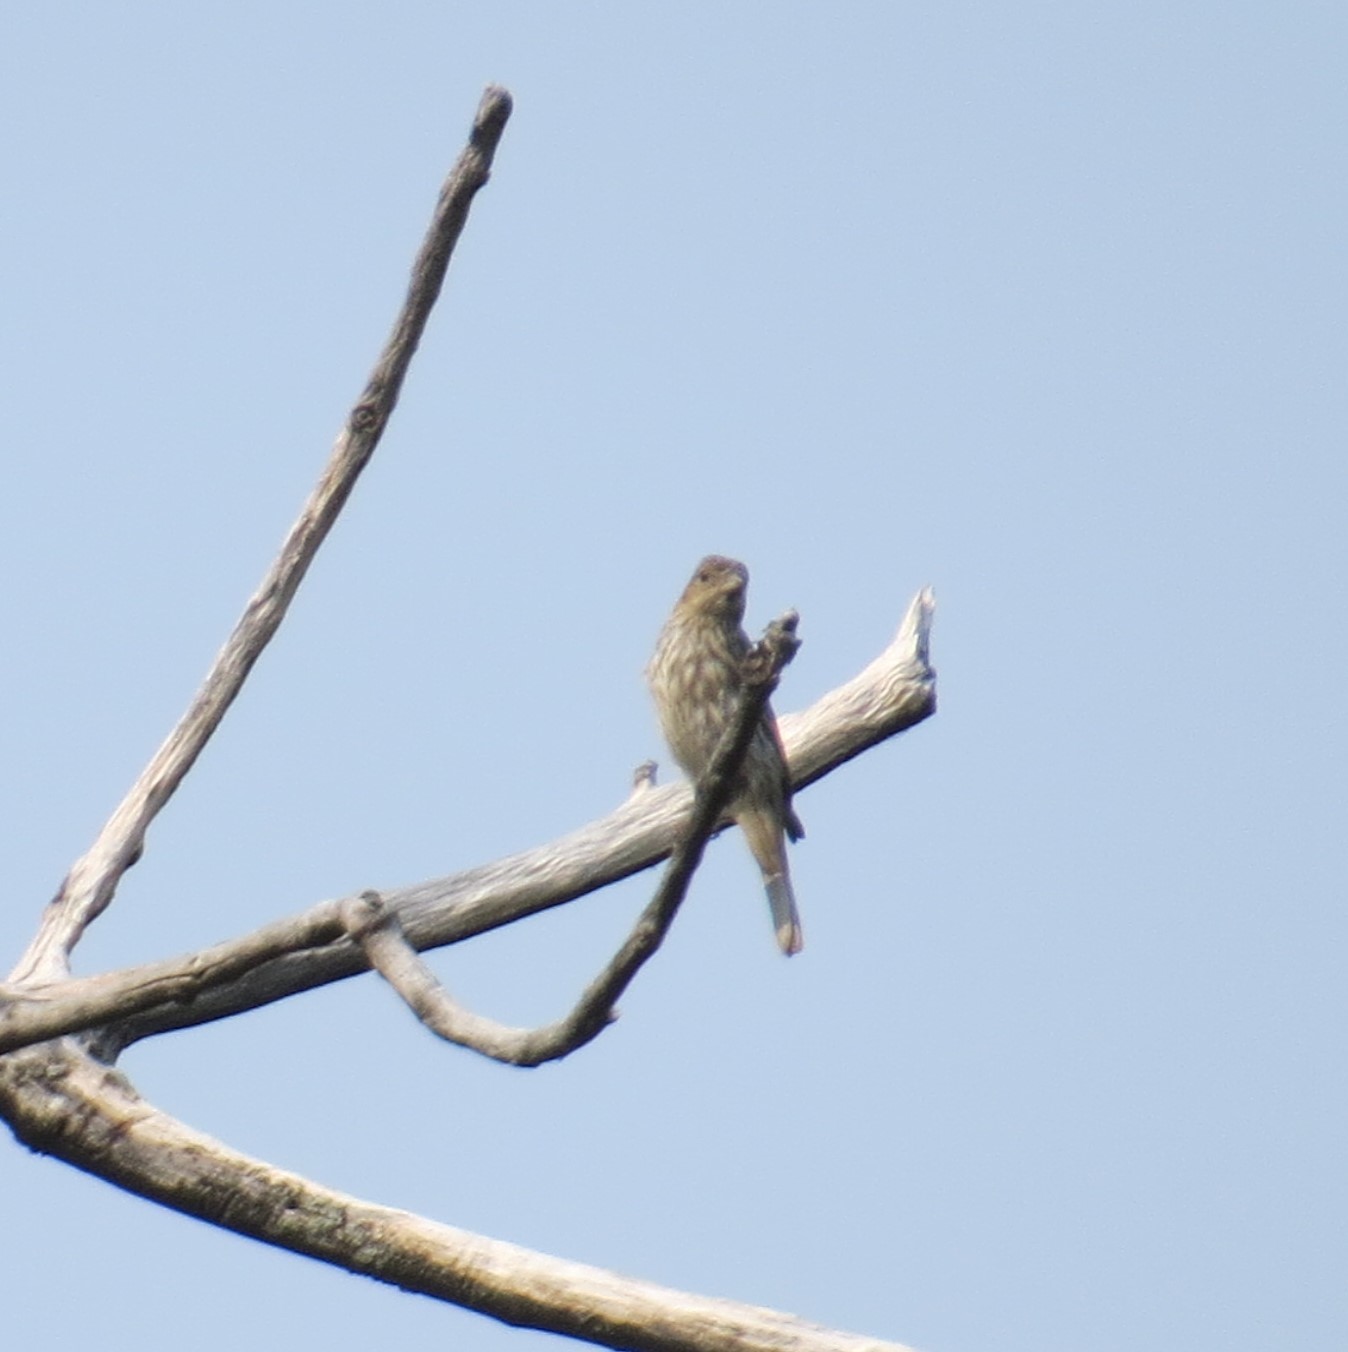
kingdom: Animalia
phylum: Chordata
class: Aves
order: Passeriformes
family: Fringillidae
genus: Haemorhous
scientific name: Haemorhous mexicanus
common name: House finch
